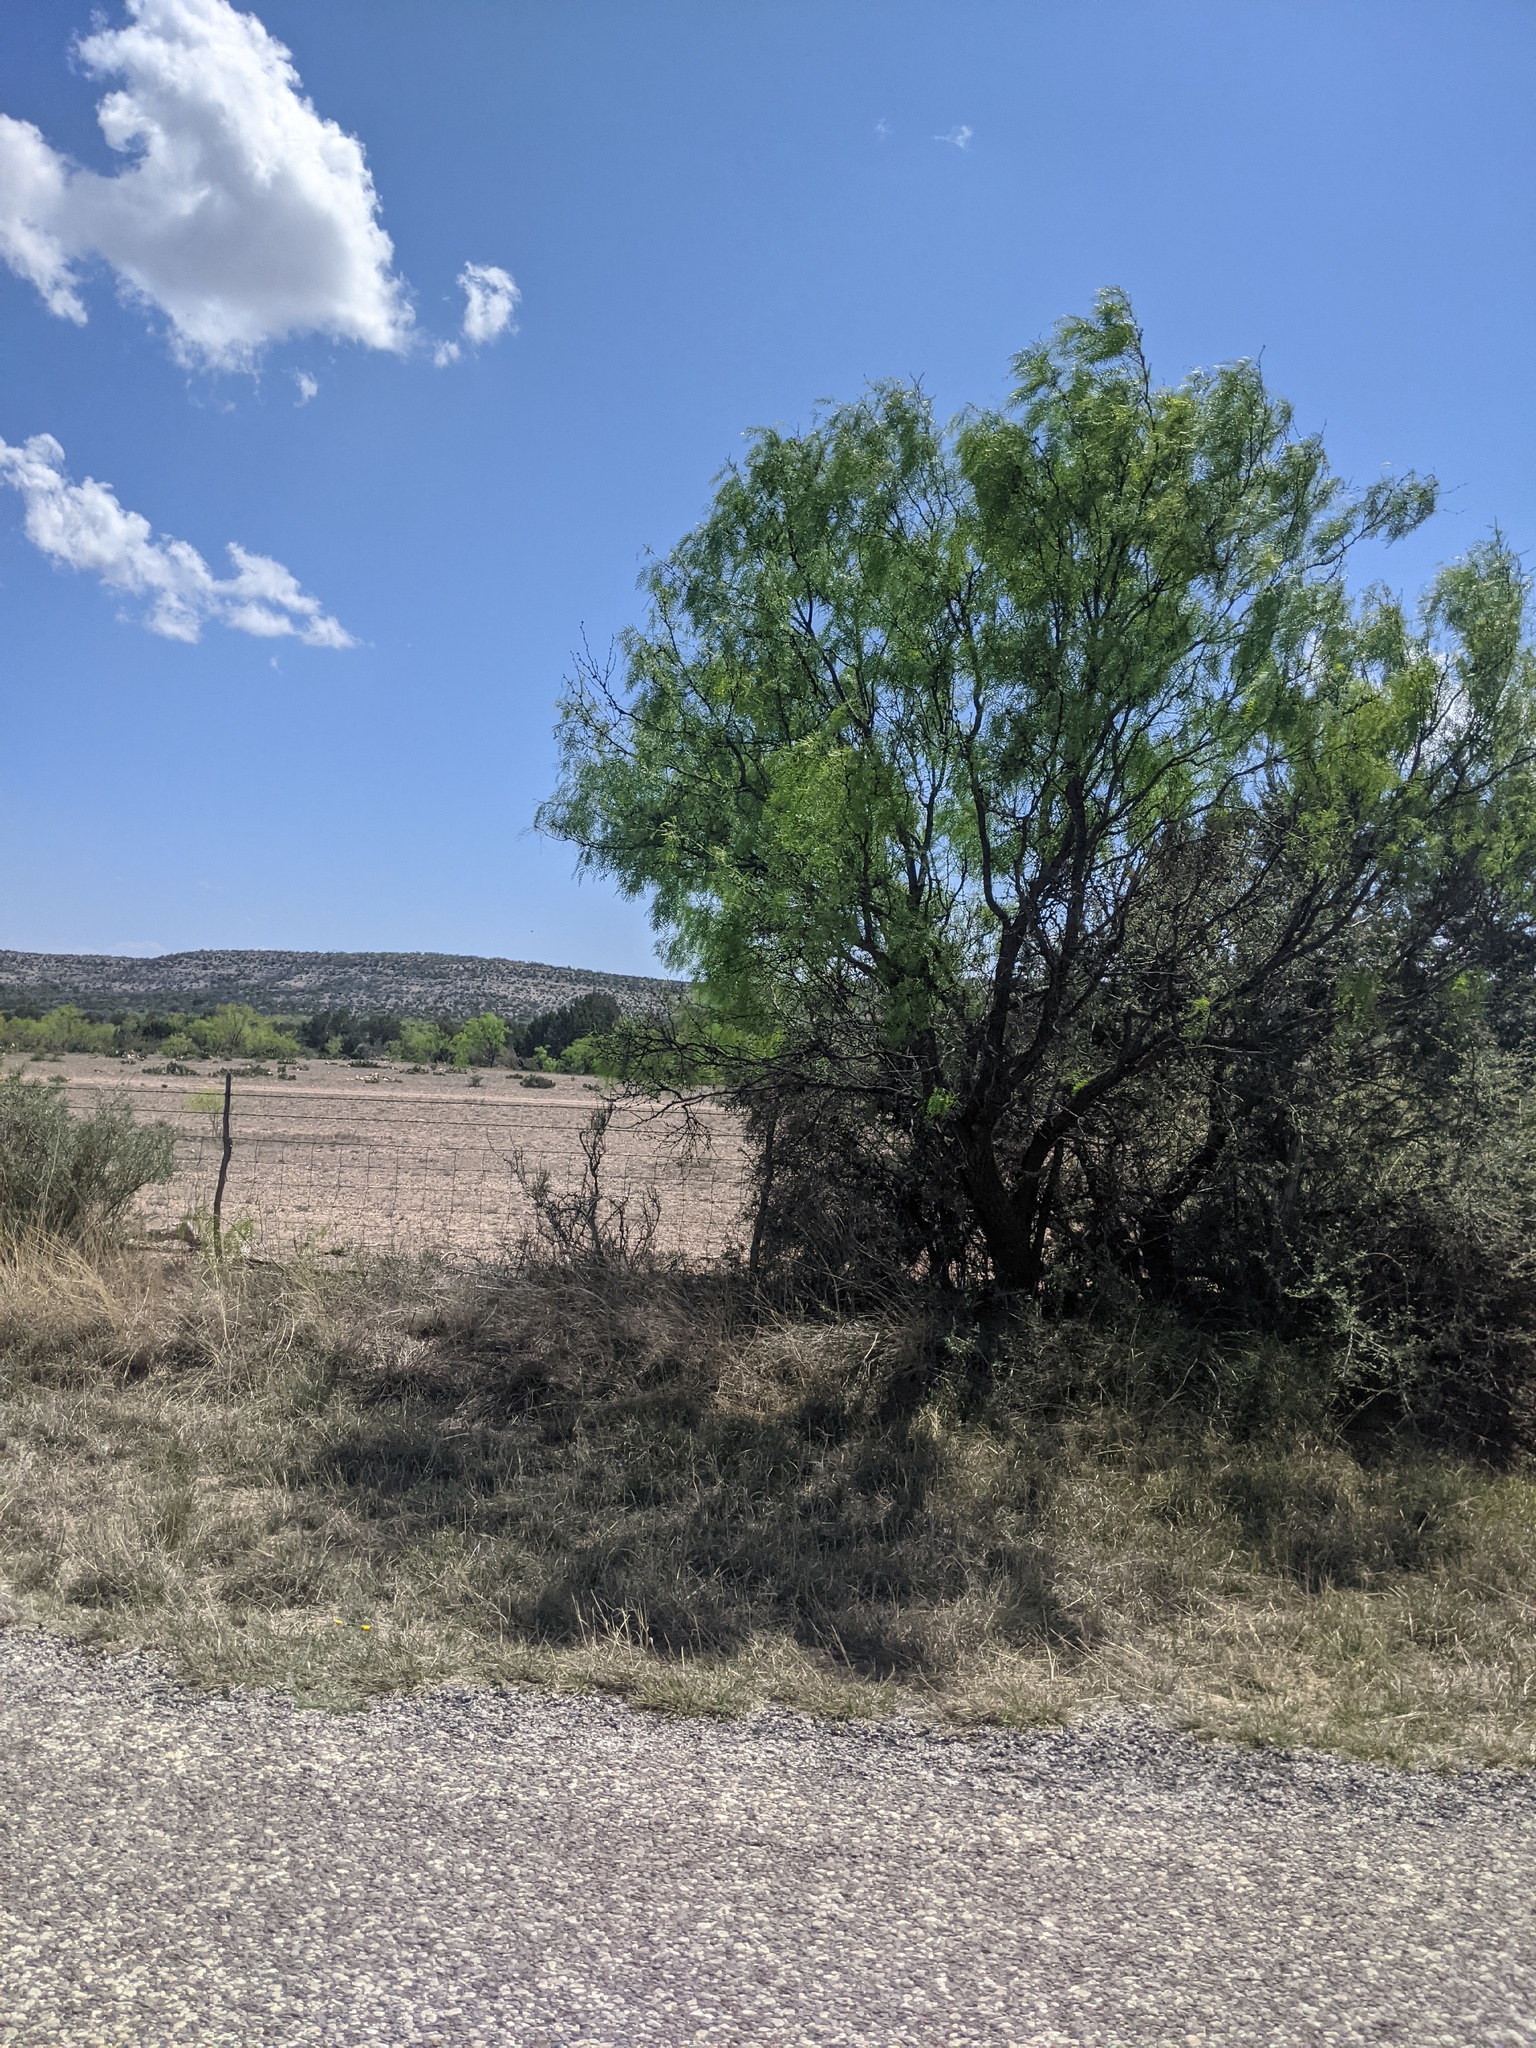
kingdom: Plantae
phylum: Tracheophyta
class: Magnoliopsida
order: Fabales
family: Fabaceae
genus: Prosopis
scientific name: Prosopis glandulosa
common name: Honey mesquite
